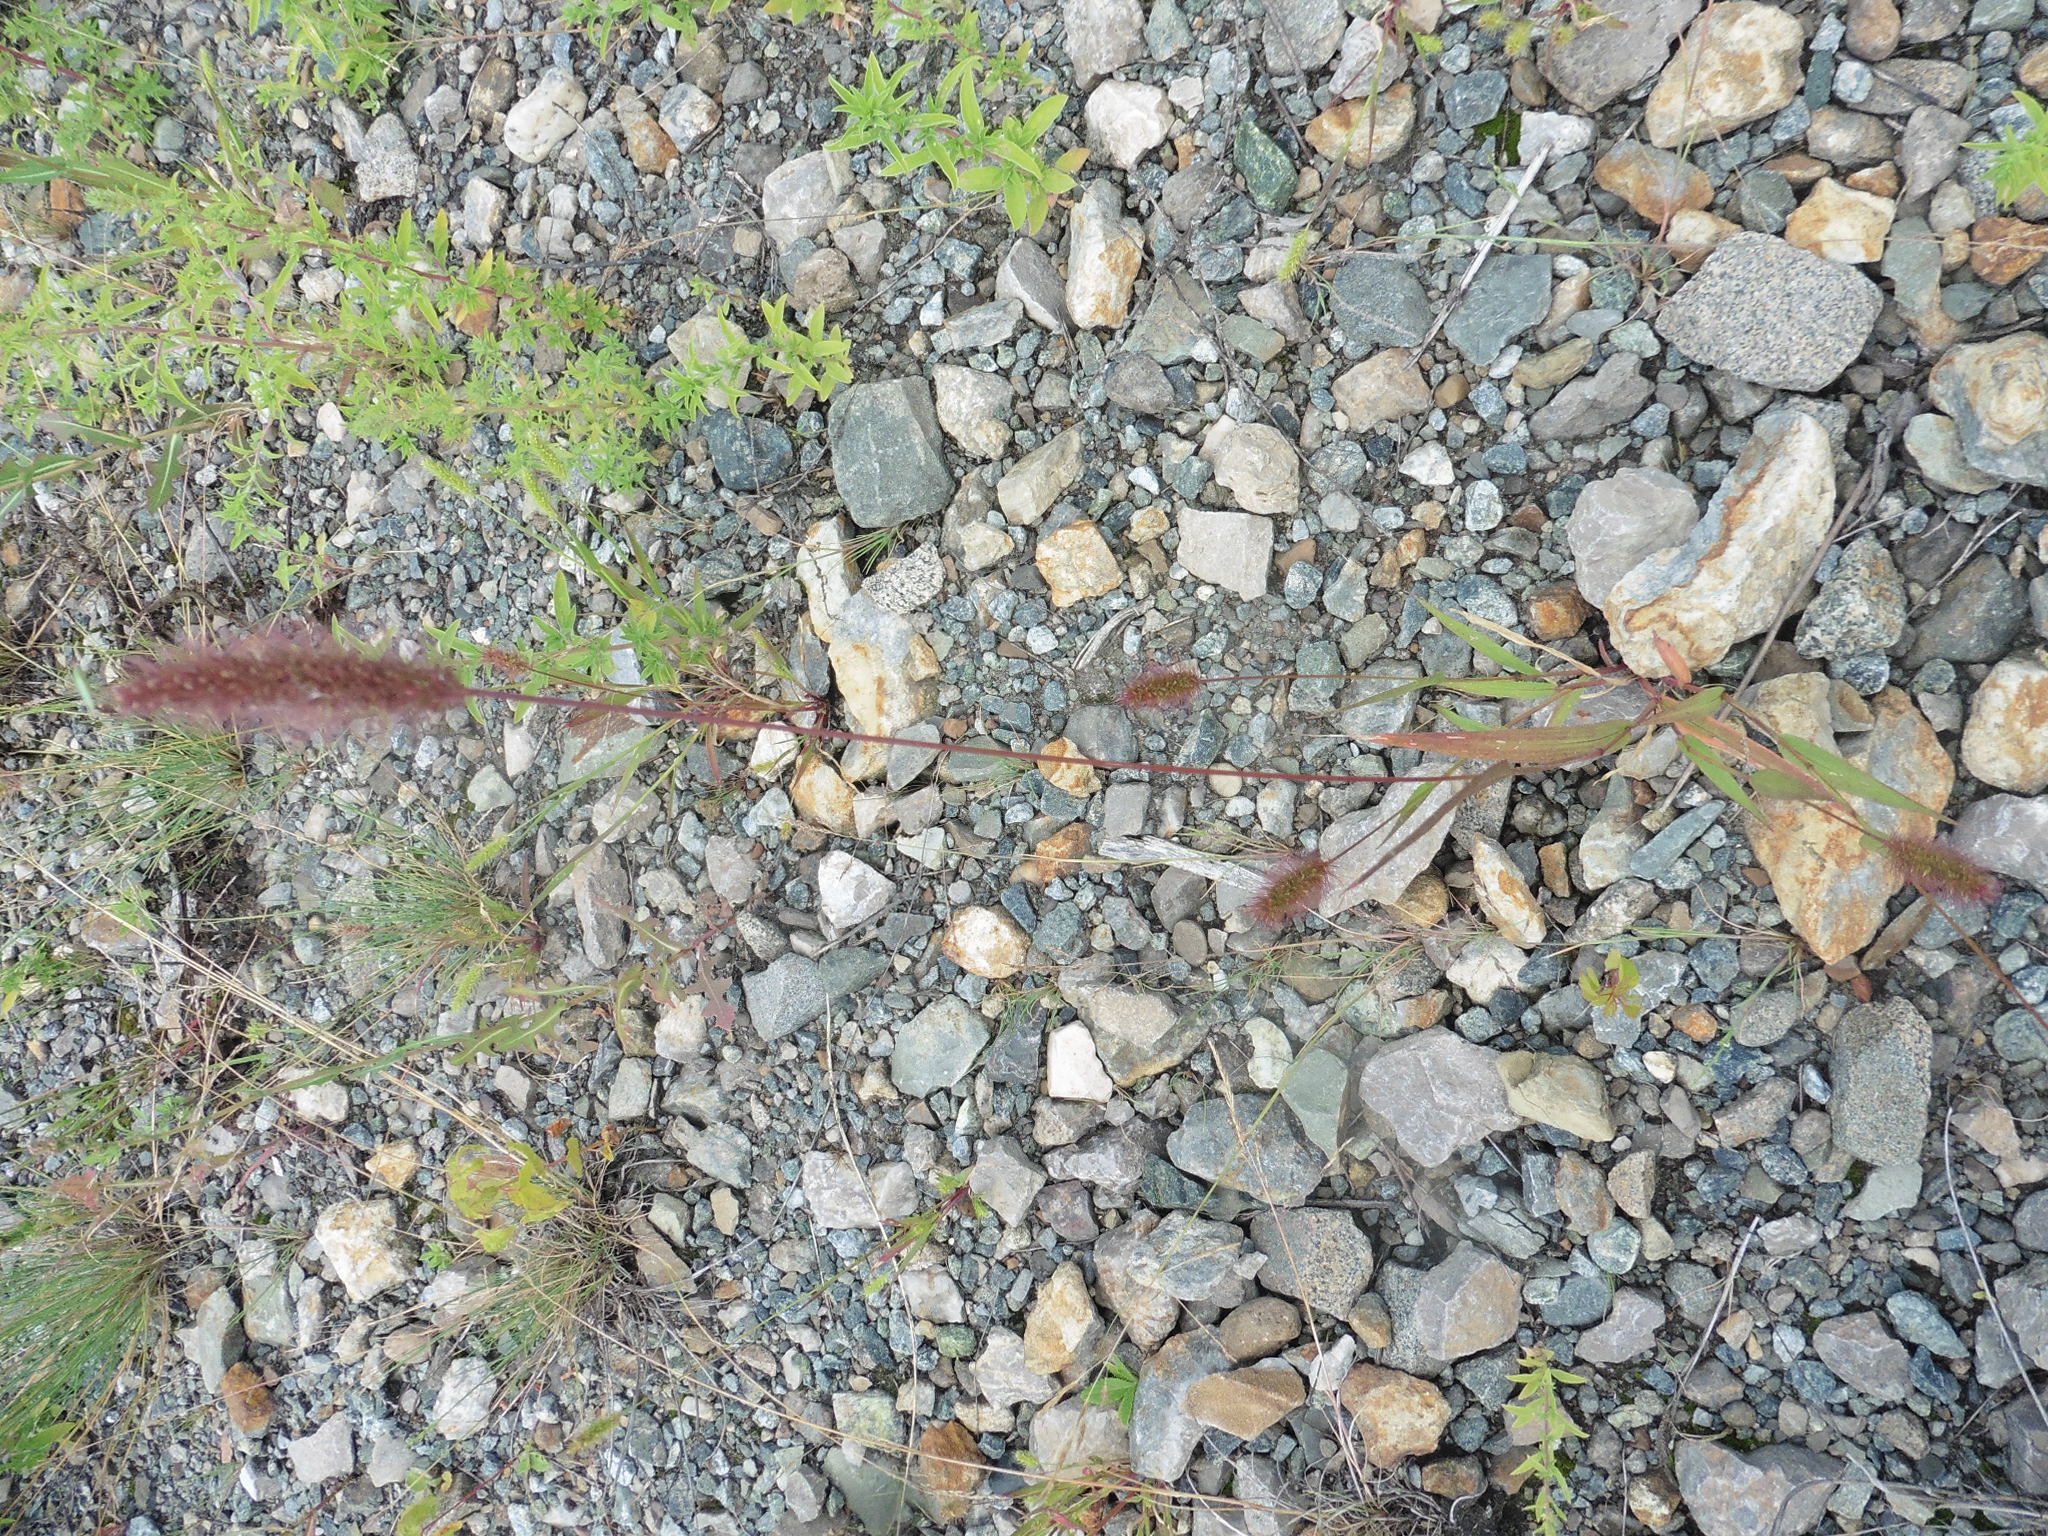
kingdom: Plantae
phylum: Tracheophyta
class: Liliopsida
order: Poales
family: Poaceae
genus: Setaria
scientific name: Setaria viridis
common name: Green bristlegrass
